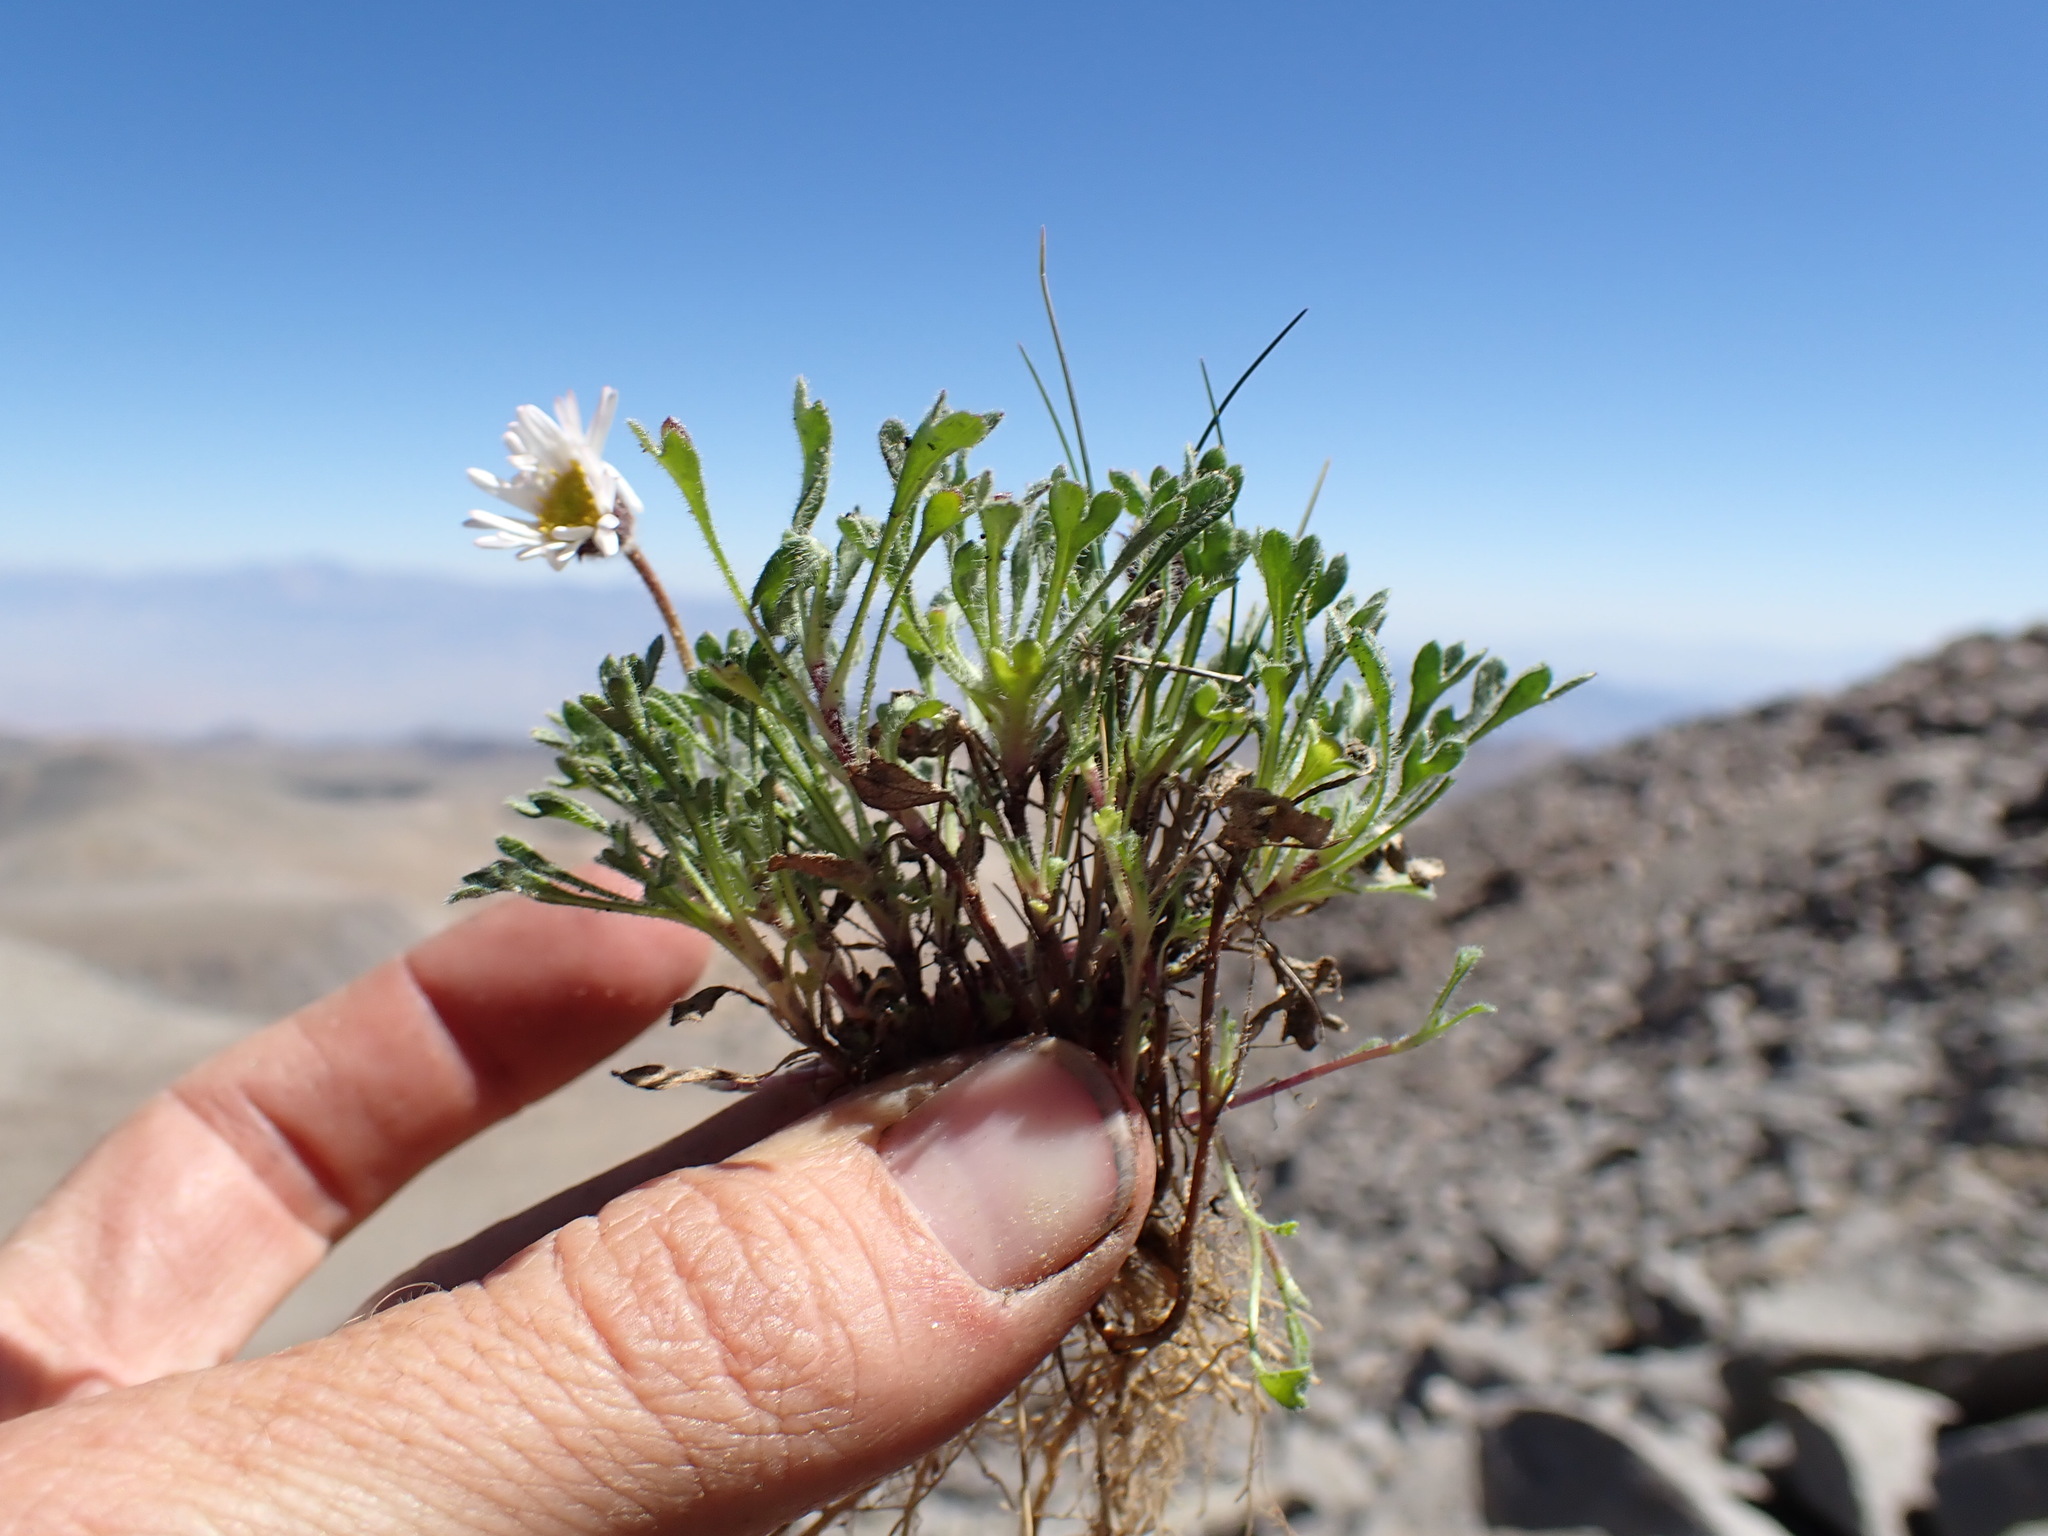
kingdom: Plantae
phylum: Tracheophyta
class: Magnoliopsida
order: Asterales
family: Asteraceae
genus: Erigeron
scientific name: Erigeron vagus
